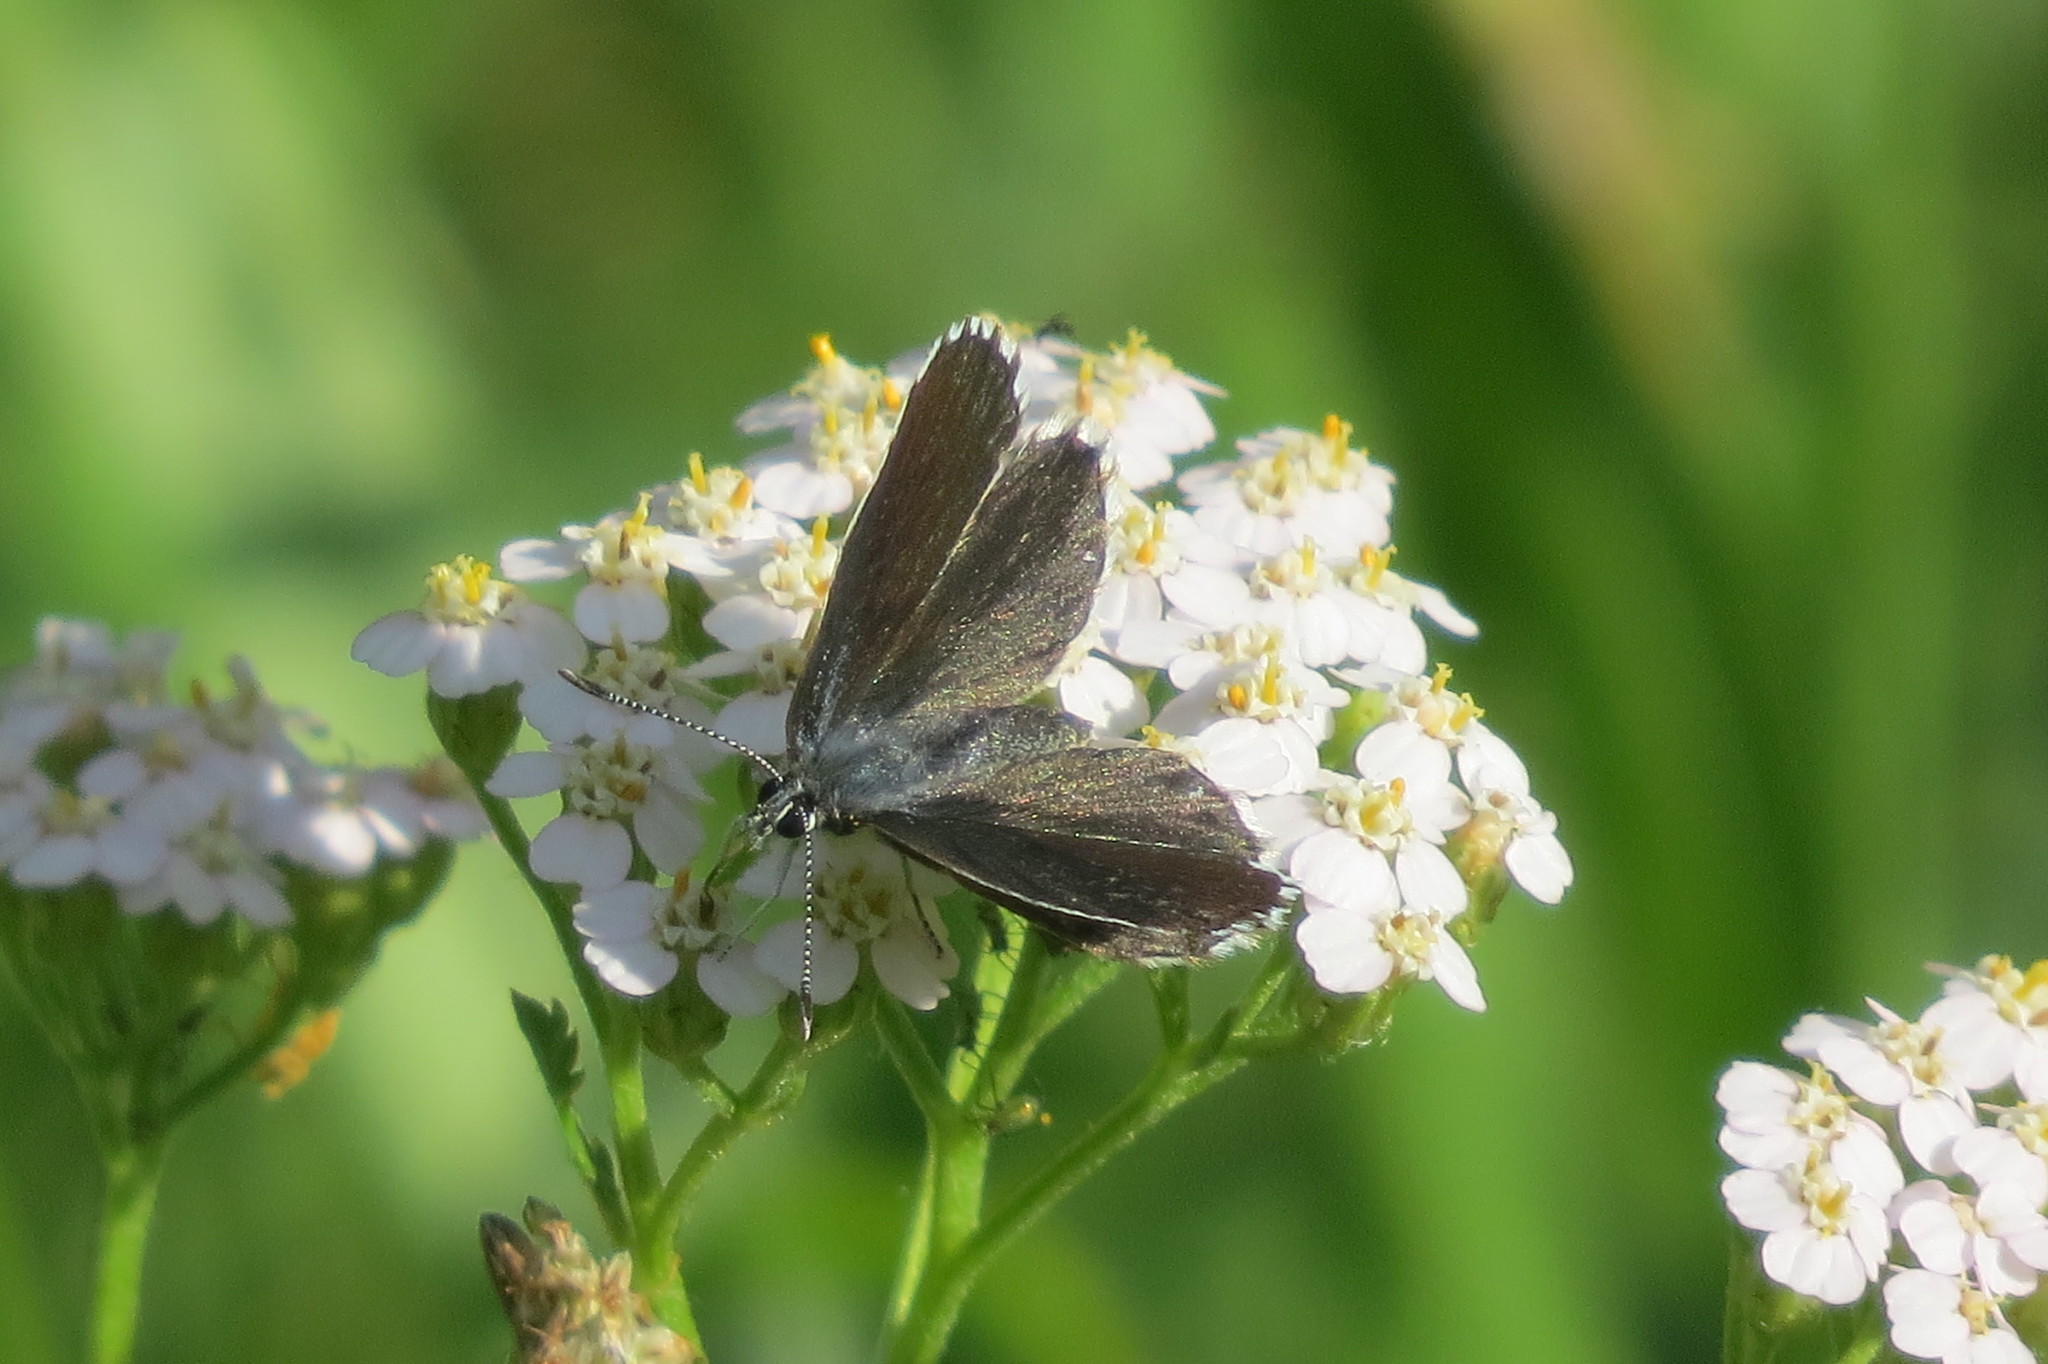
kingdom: Animalia
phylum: Arthropoda
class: Insecta
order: Lepidoptera
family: Lycaenidae
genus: Scolitantides
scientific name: Scolitantides orion
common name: Chequered blue
